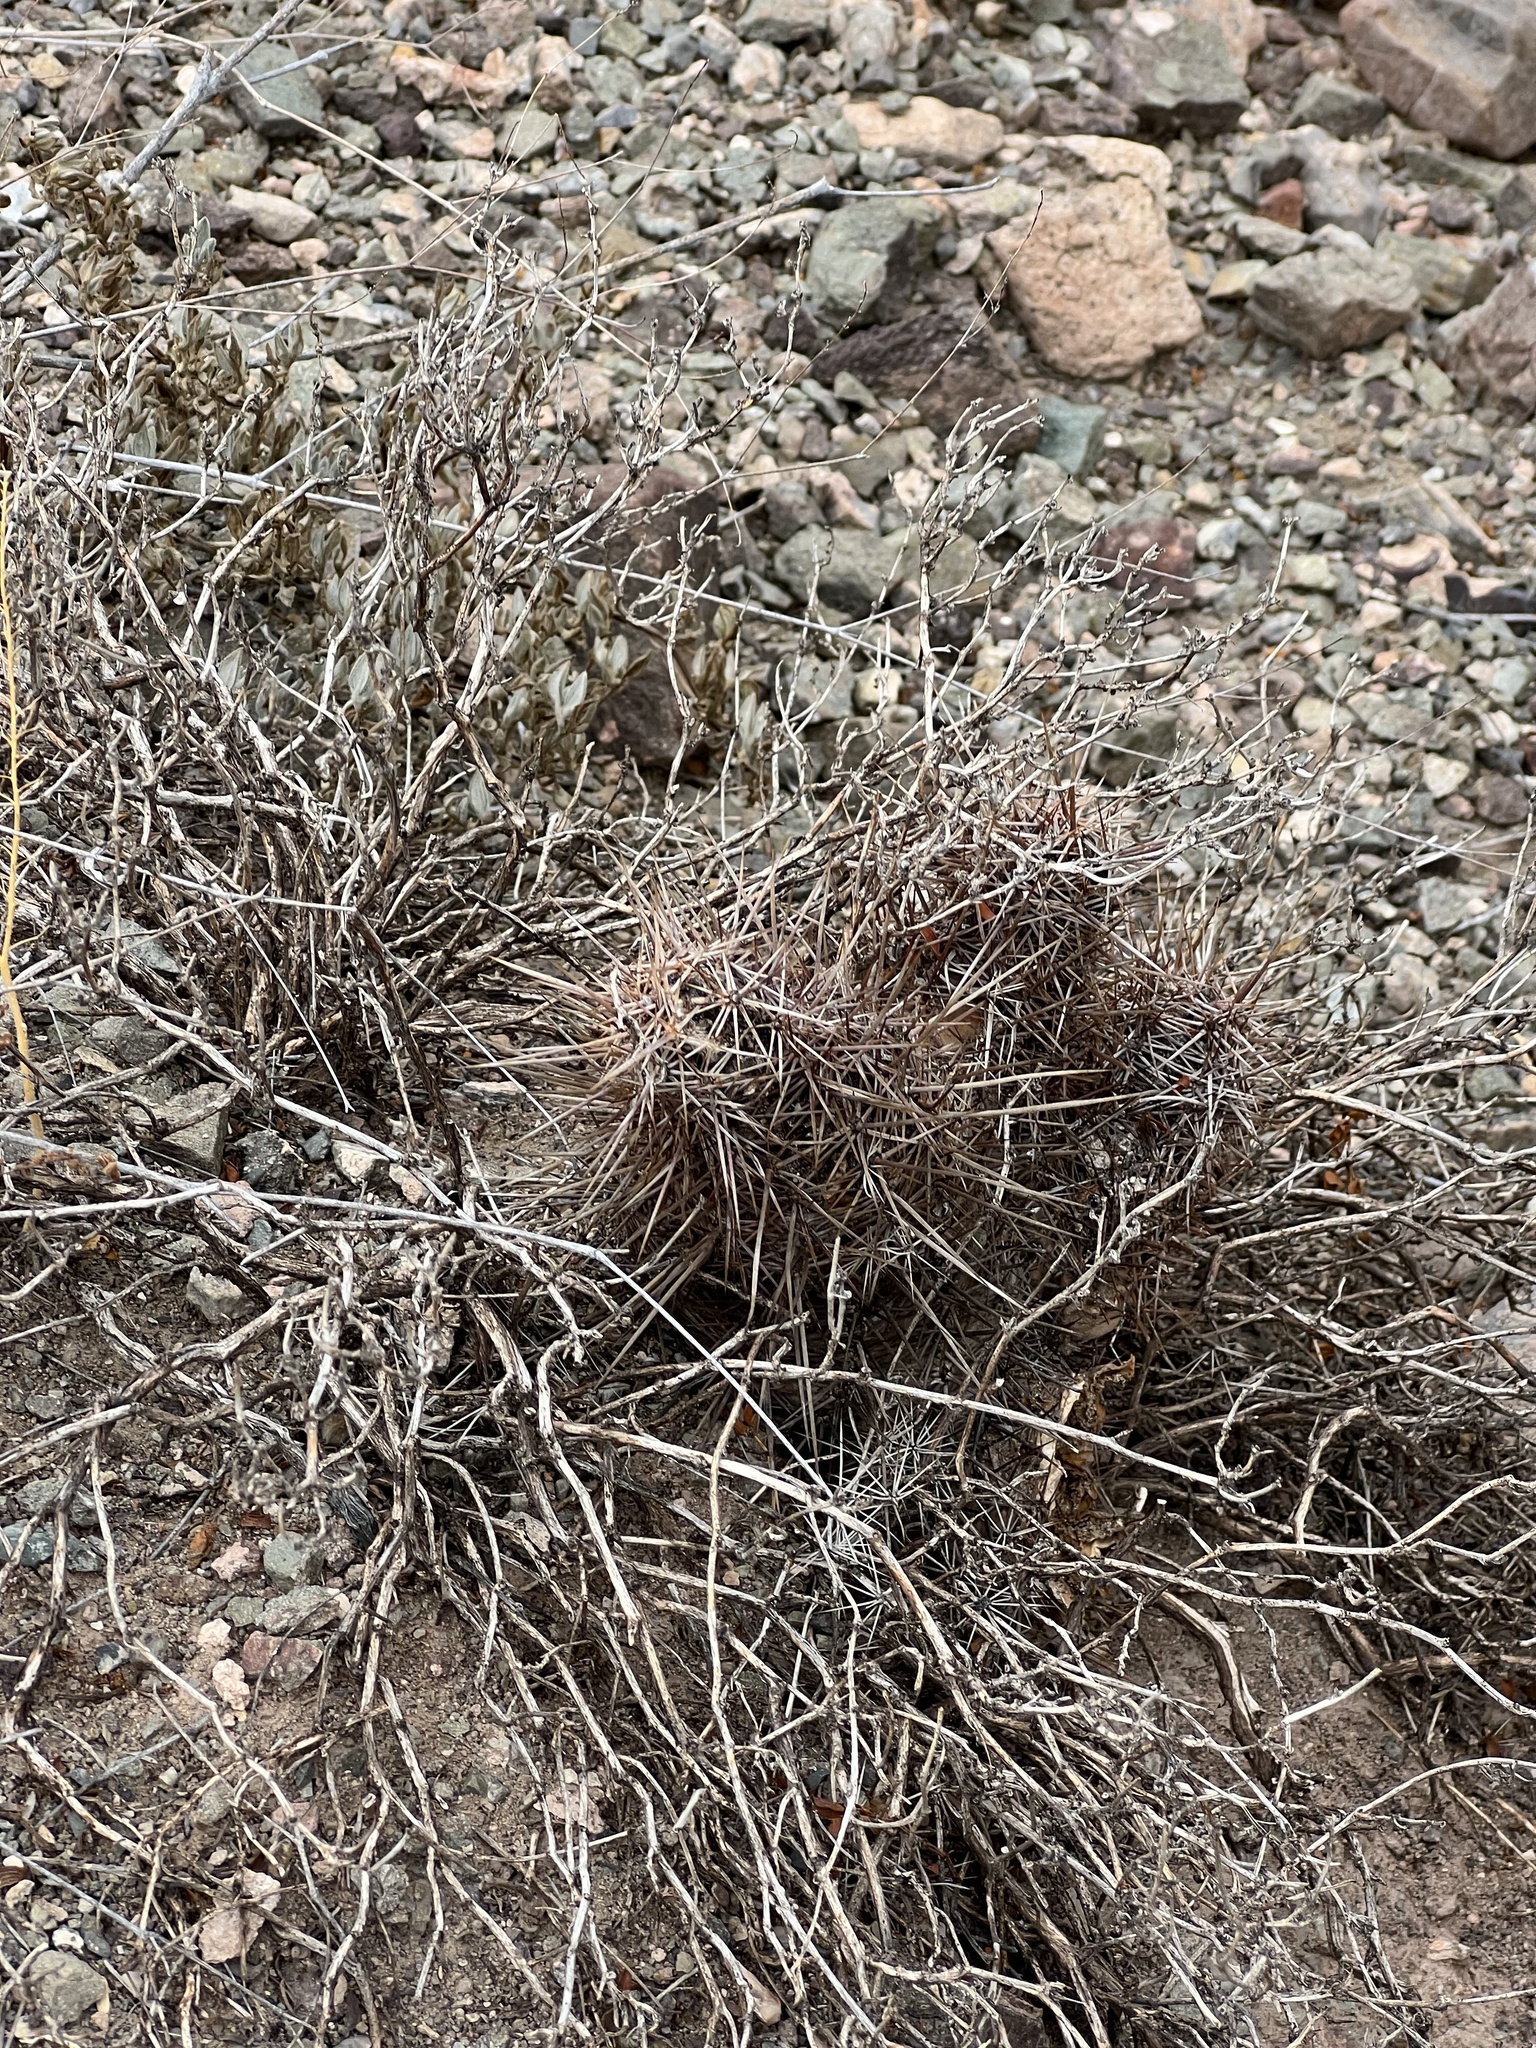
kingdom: Plantae
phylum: Tracheophyta
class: Magnoliopsida
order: Caryophyllales
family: Cactaceae
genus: Echinocereus
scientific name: Echinocereus fasciculatus
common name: Bundle hedgehog
